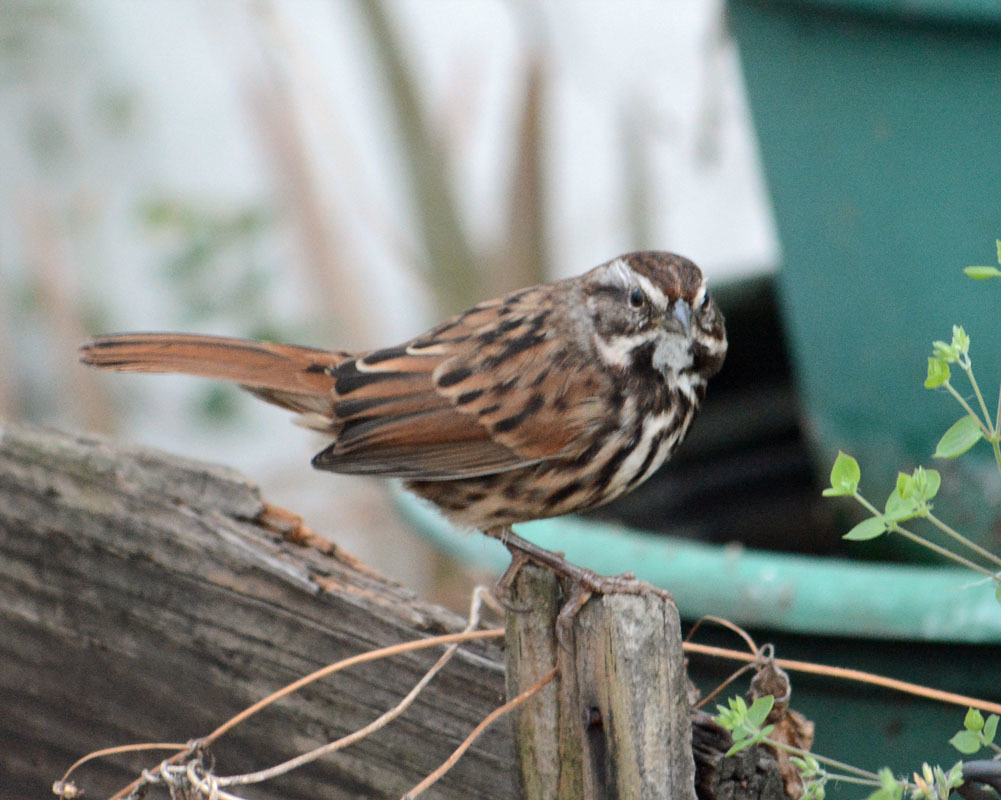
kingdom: Animalia
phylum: Chordata
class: Aves
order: Passeriformes
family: Passerellidae
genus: Melospiza
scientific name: Melospiza melodia
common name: Song sparrow
